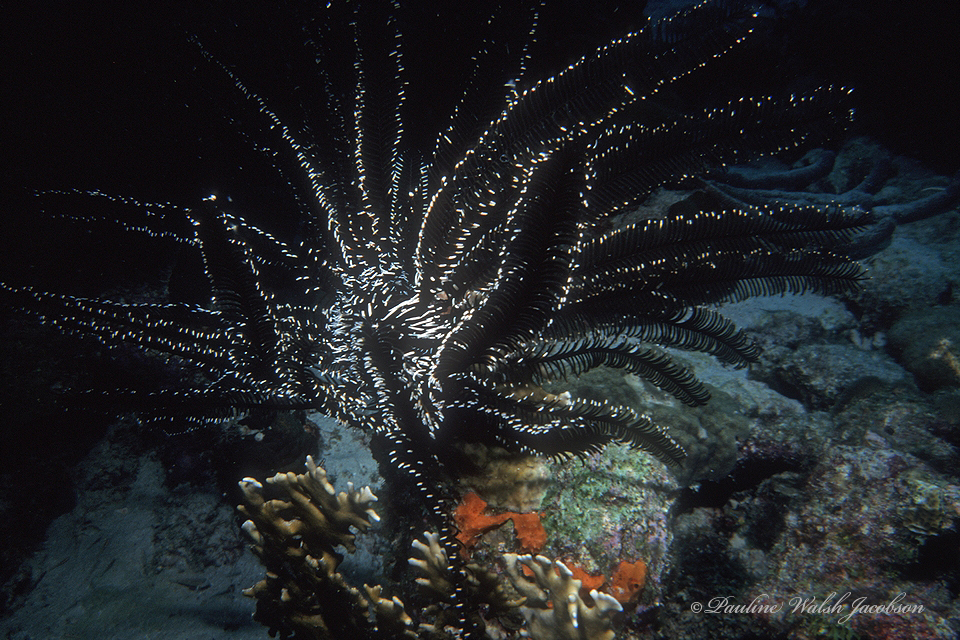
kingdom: Animalia
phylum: Echinodermata
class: Crinoidea
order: Comatulida
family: Comatulidae
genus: Nemaster
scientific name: Nemaster grandis
